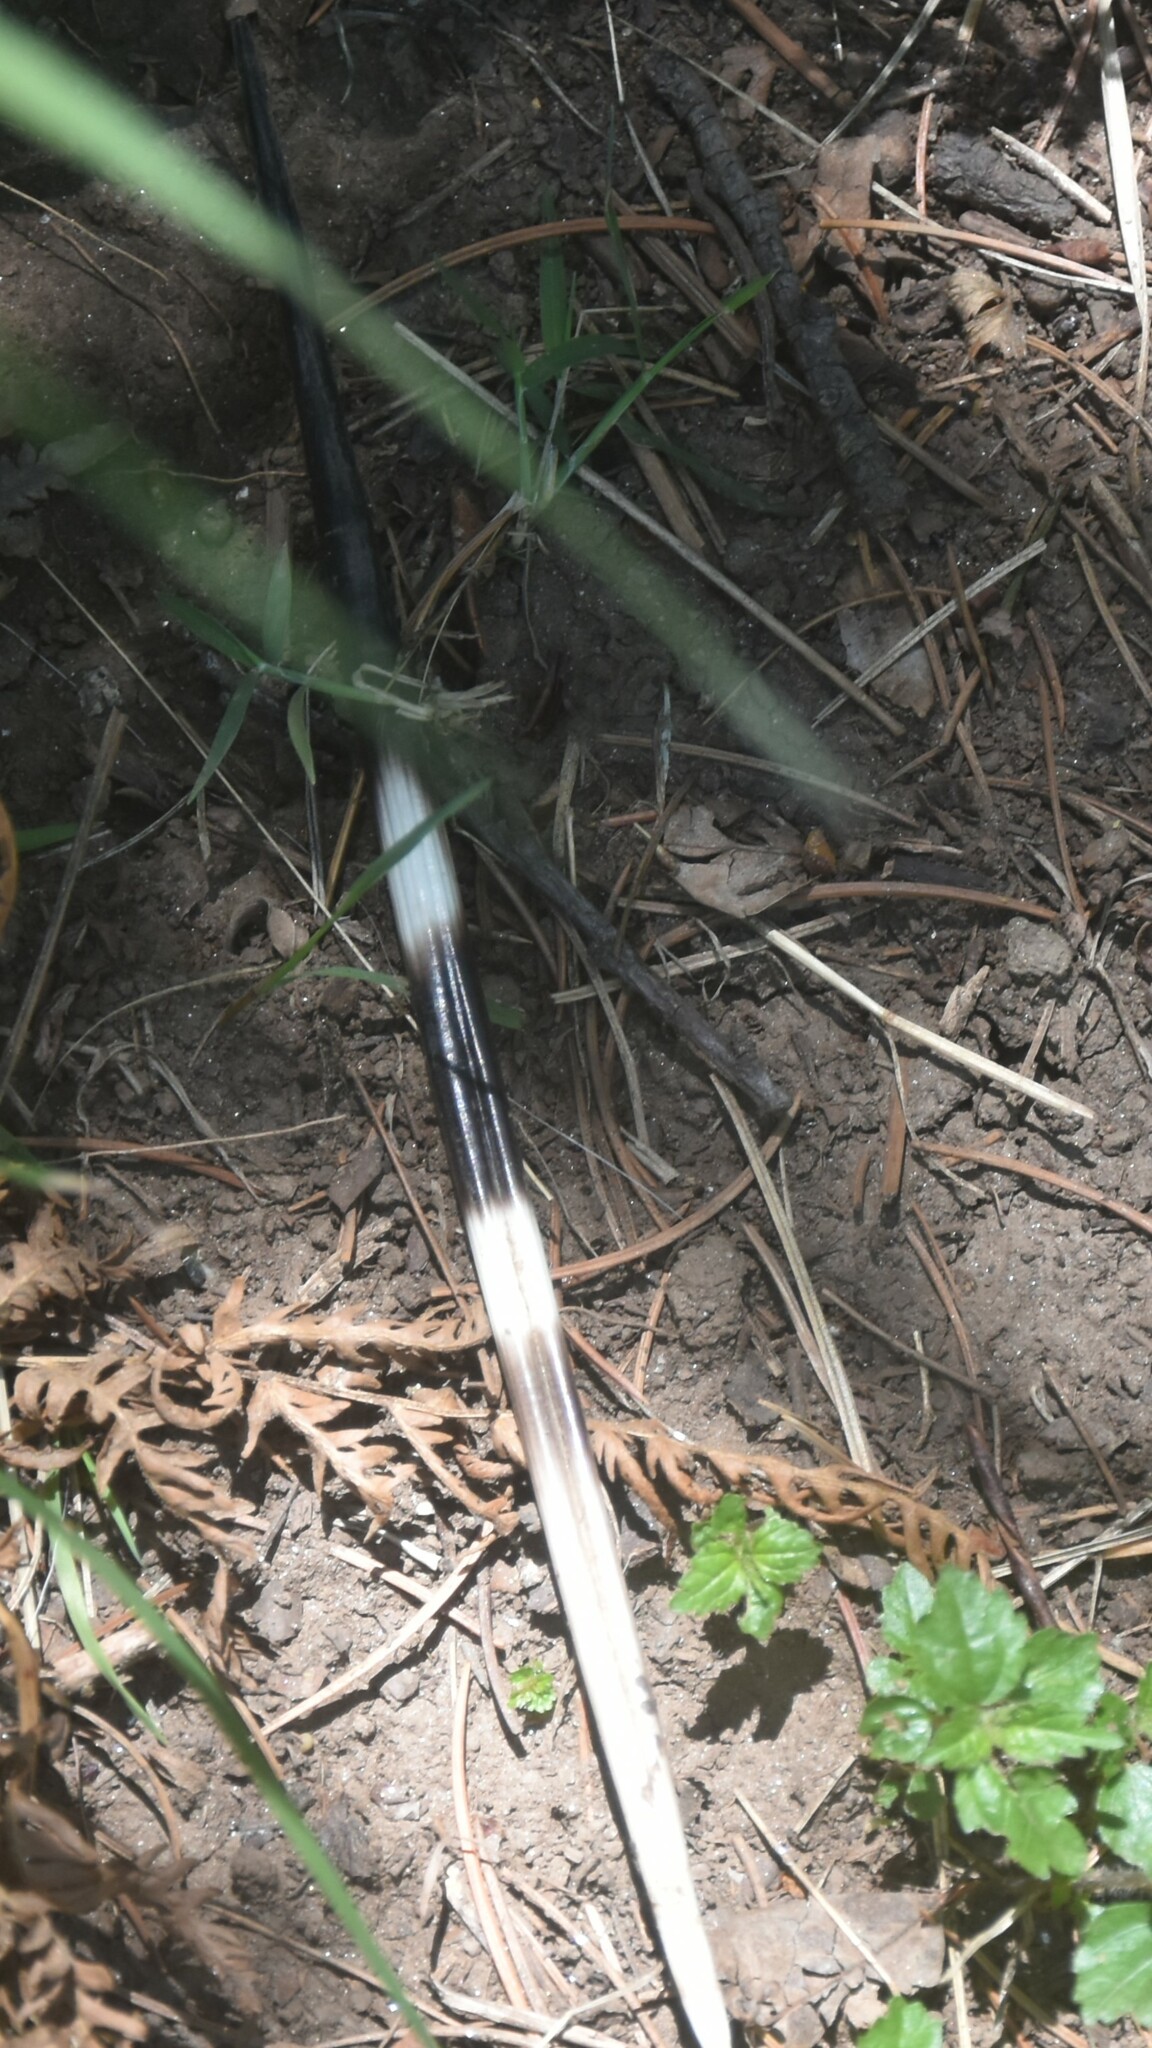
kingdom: Animalia
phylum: Chordata
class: Mammalia
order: Rodentia
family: Hystricidae
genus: Hystrix
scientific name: Hystrix indica
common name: Indian crested porcupine
